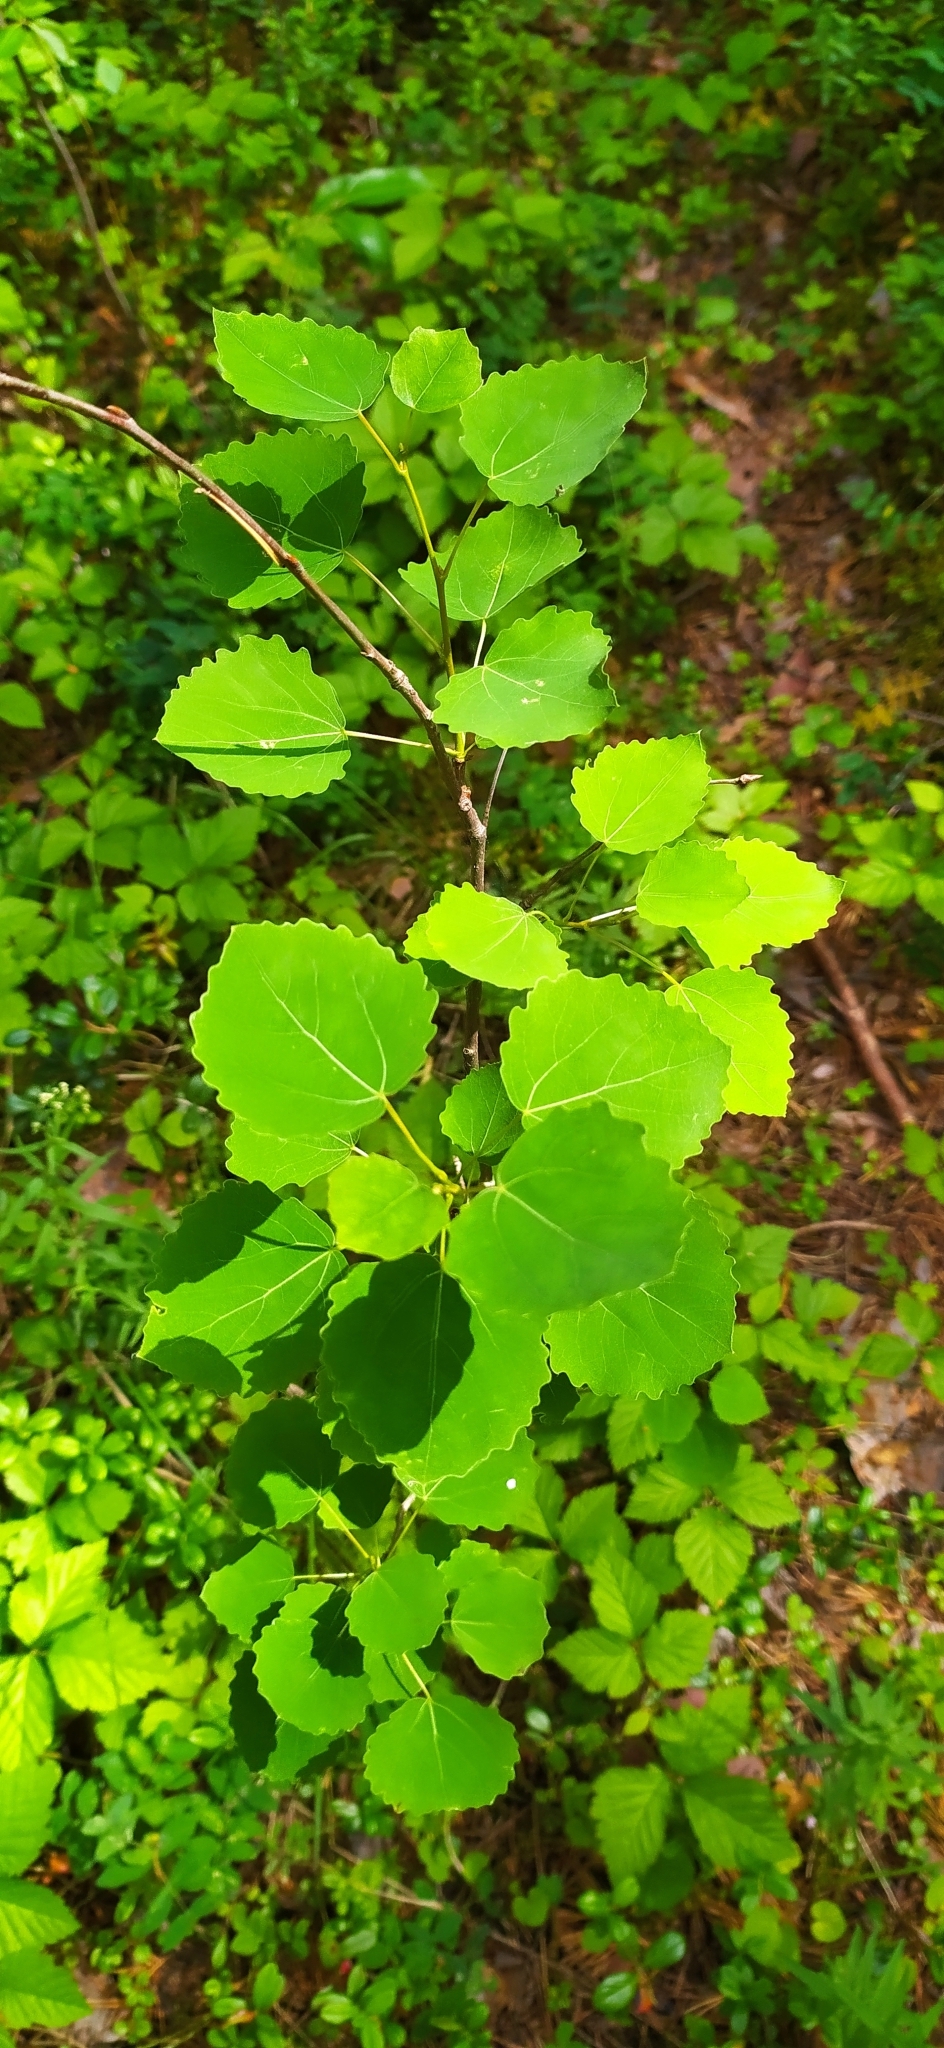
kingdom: Plantae
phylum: Tracheophyta
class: Magnoliopsida
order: Malpighiales
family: Salicaceae
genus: Populus
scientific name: Populus tremula
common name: European aspen
